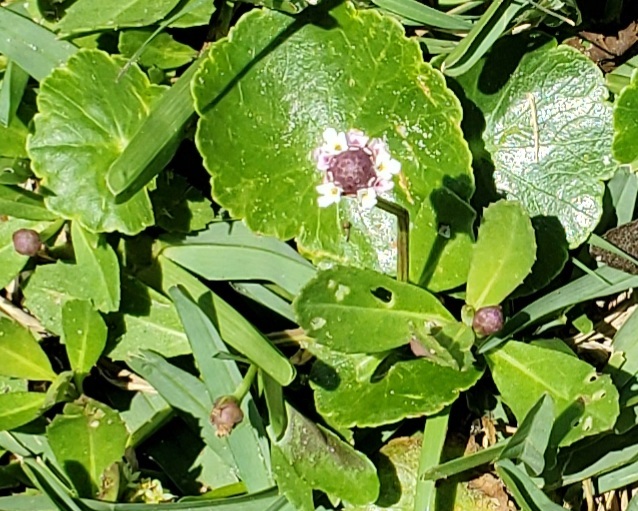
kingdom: Plantae
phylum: Tracheophyta
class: Magnoliopsida
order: Lamiales
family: Verbenaceae
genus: Phyla
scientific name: Phyla nodiflora
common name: Frogfruit
